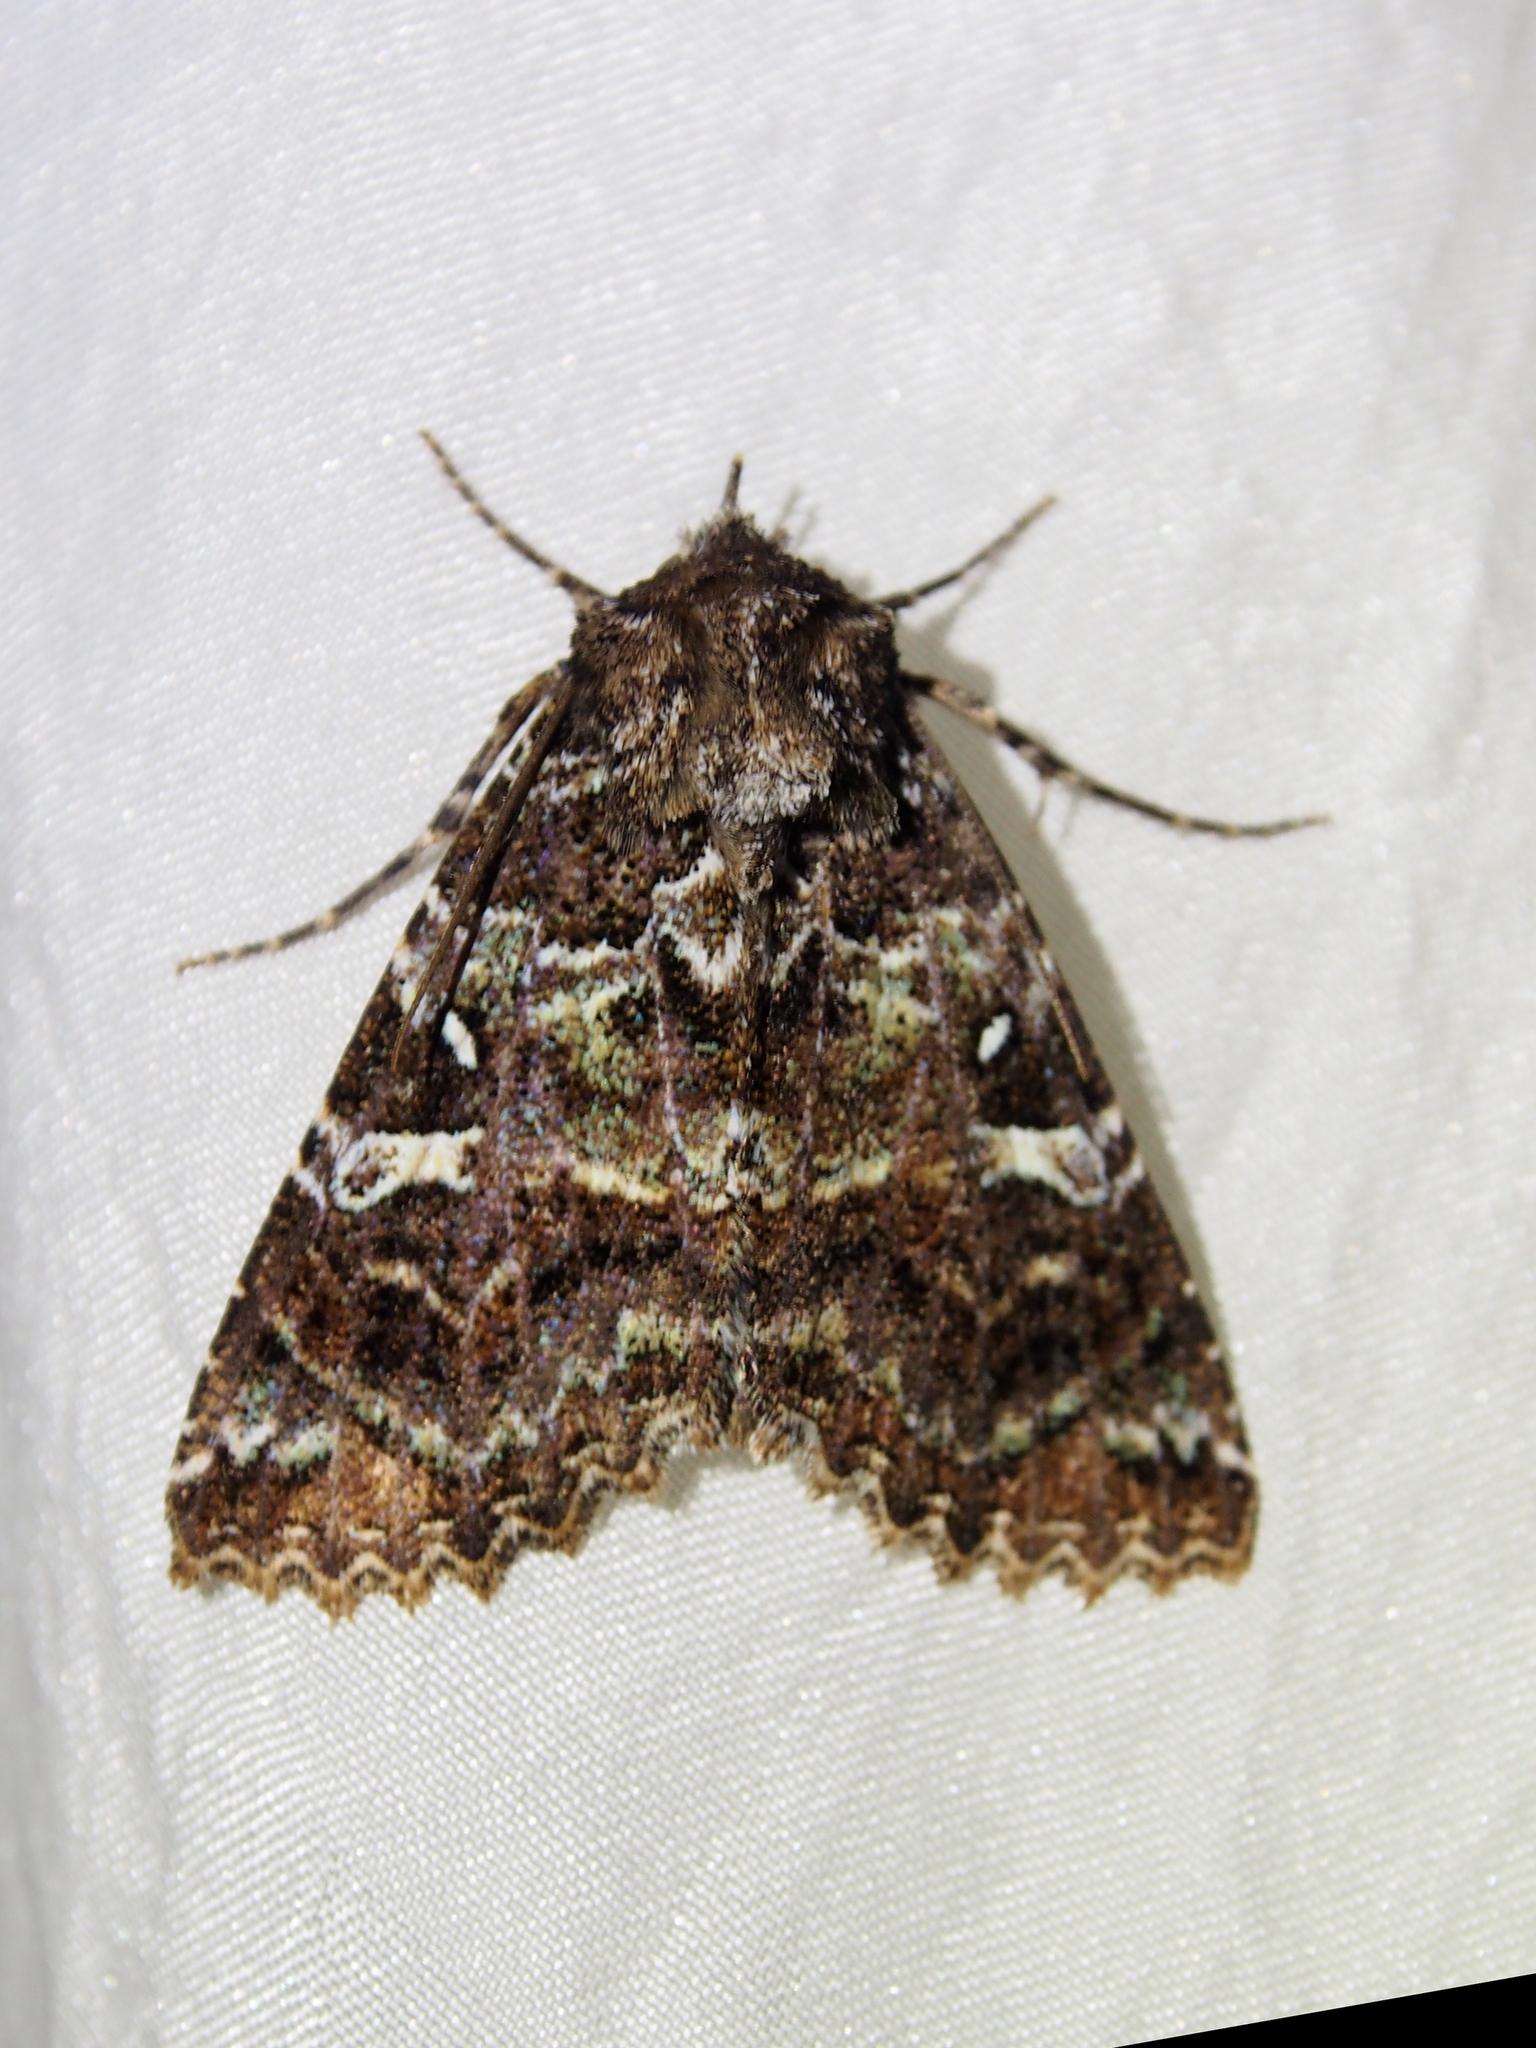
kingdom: Animalia
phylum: Arthropoda
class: Insecta
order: Lepidoptera
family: Erebidae
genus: Safidia
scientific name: Safidia druceria
